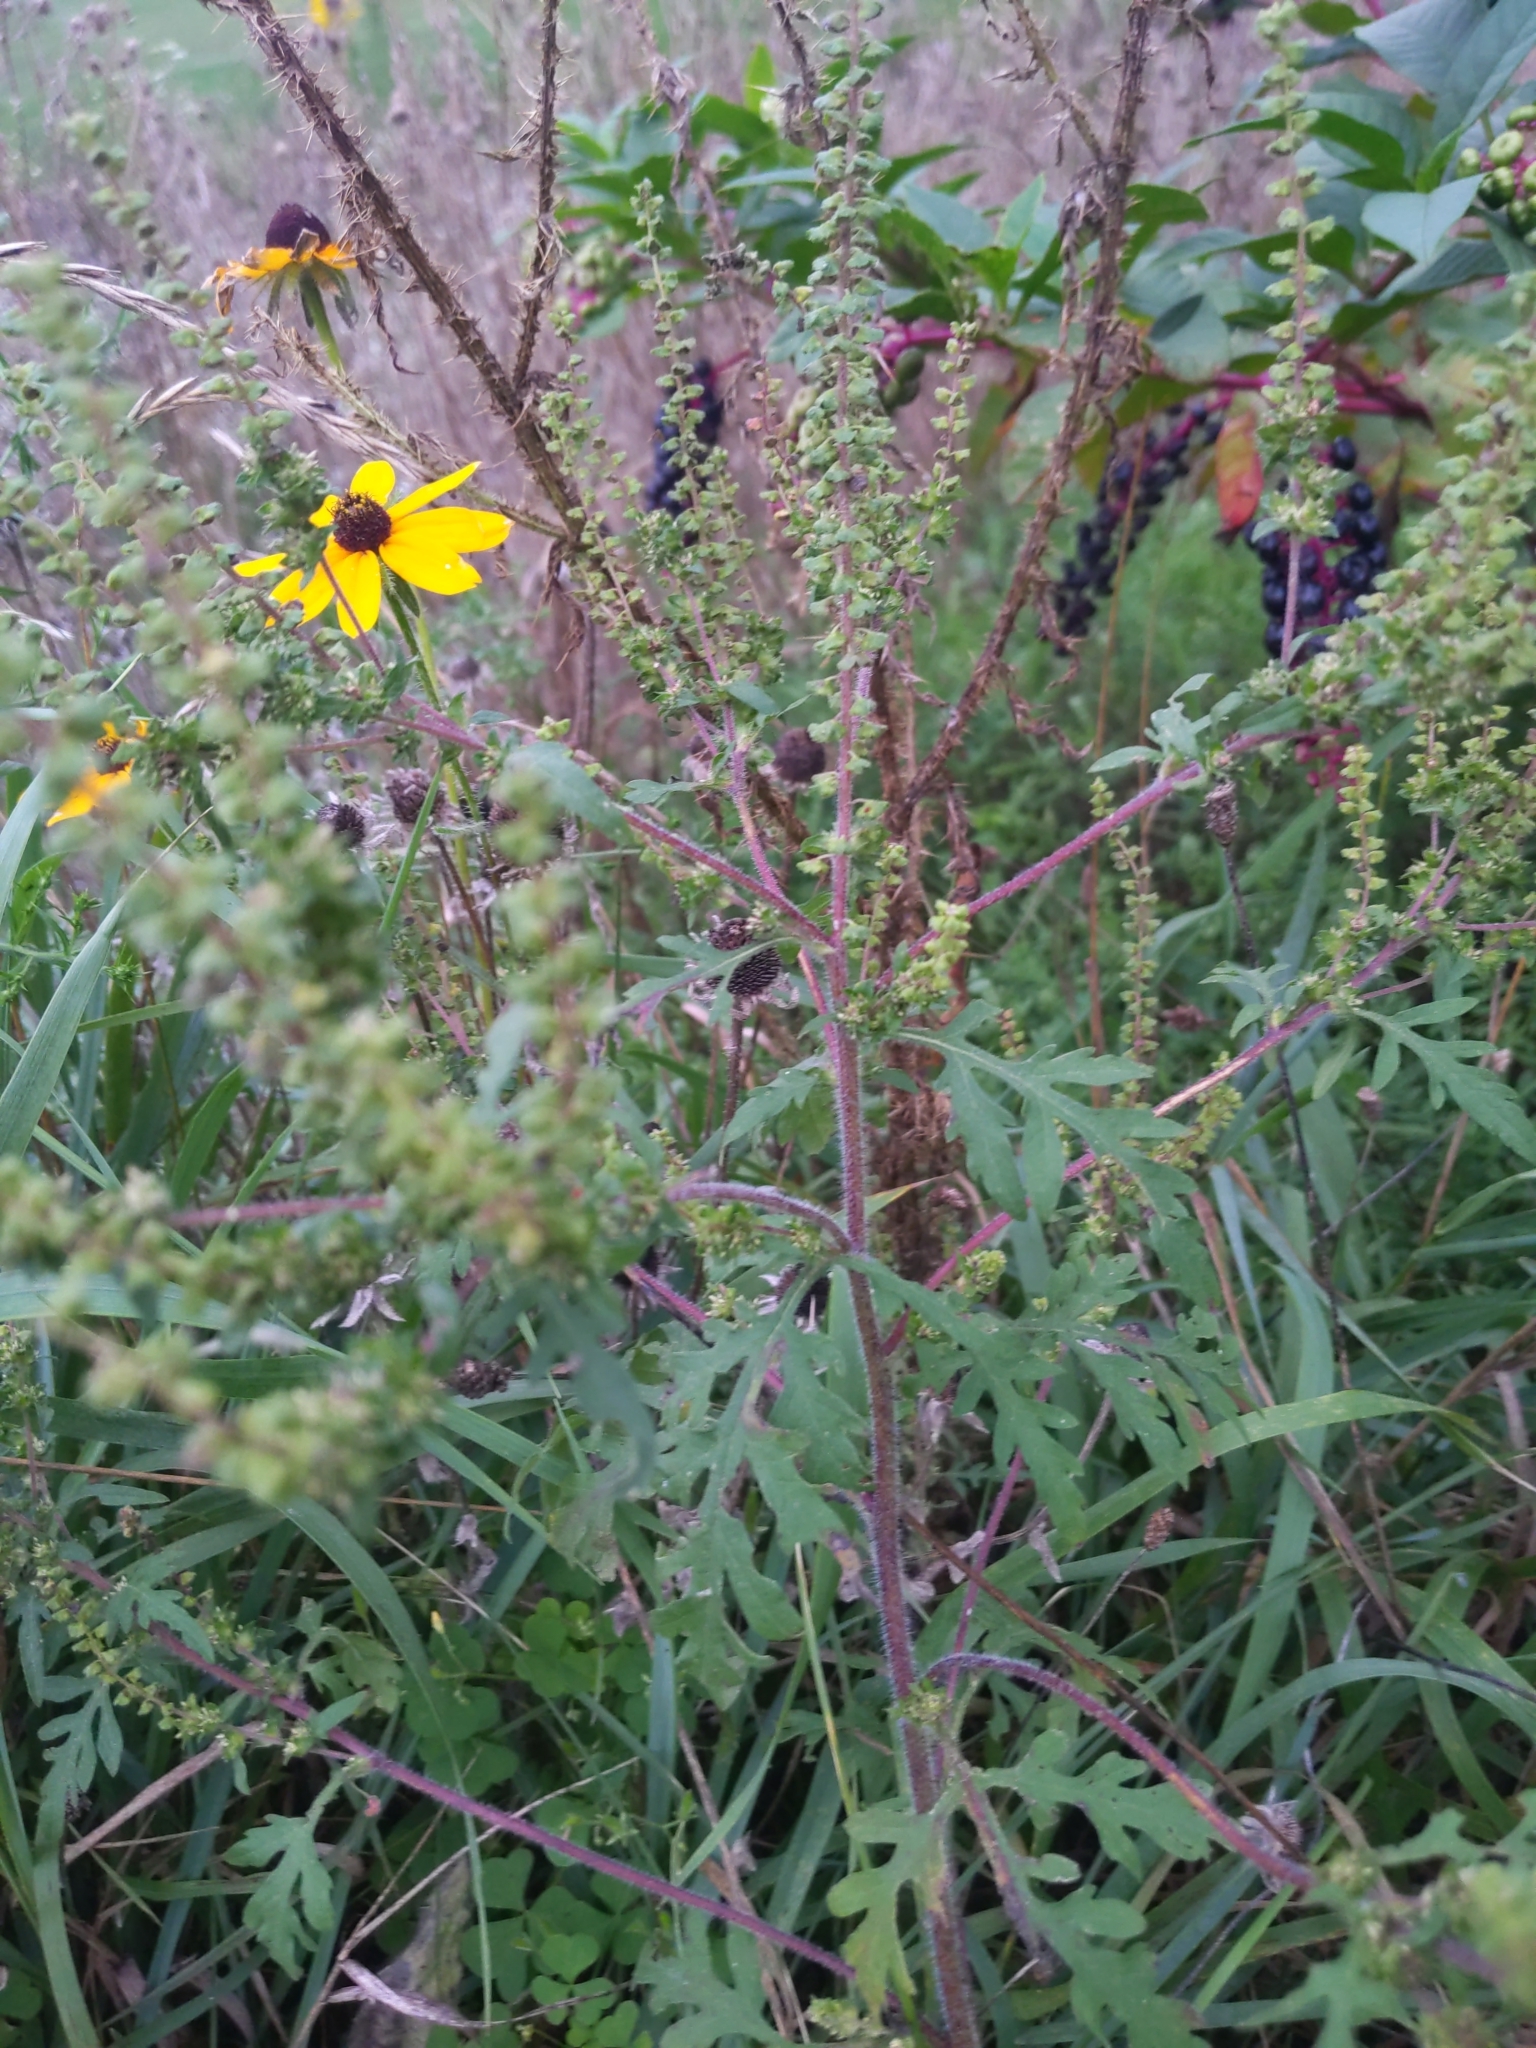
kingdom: Plantae
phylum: Tracheophyta
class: Magnoliopsida
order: Asterales
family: Asteraceae
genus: Ambrosia
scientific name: Ambrosia artemisiifolia
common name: Annual ragweed
